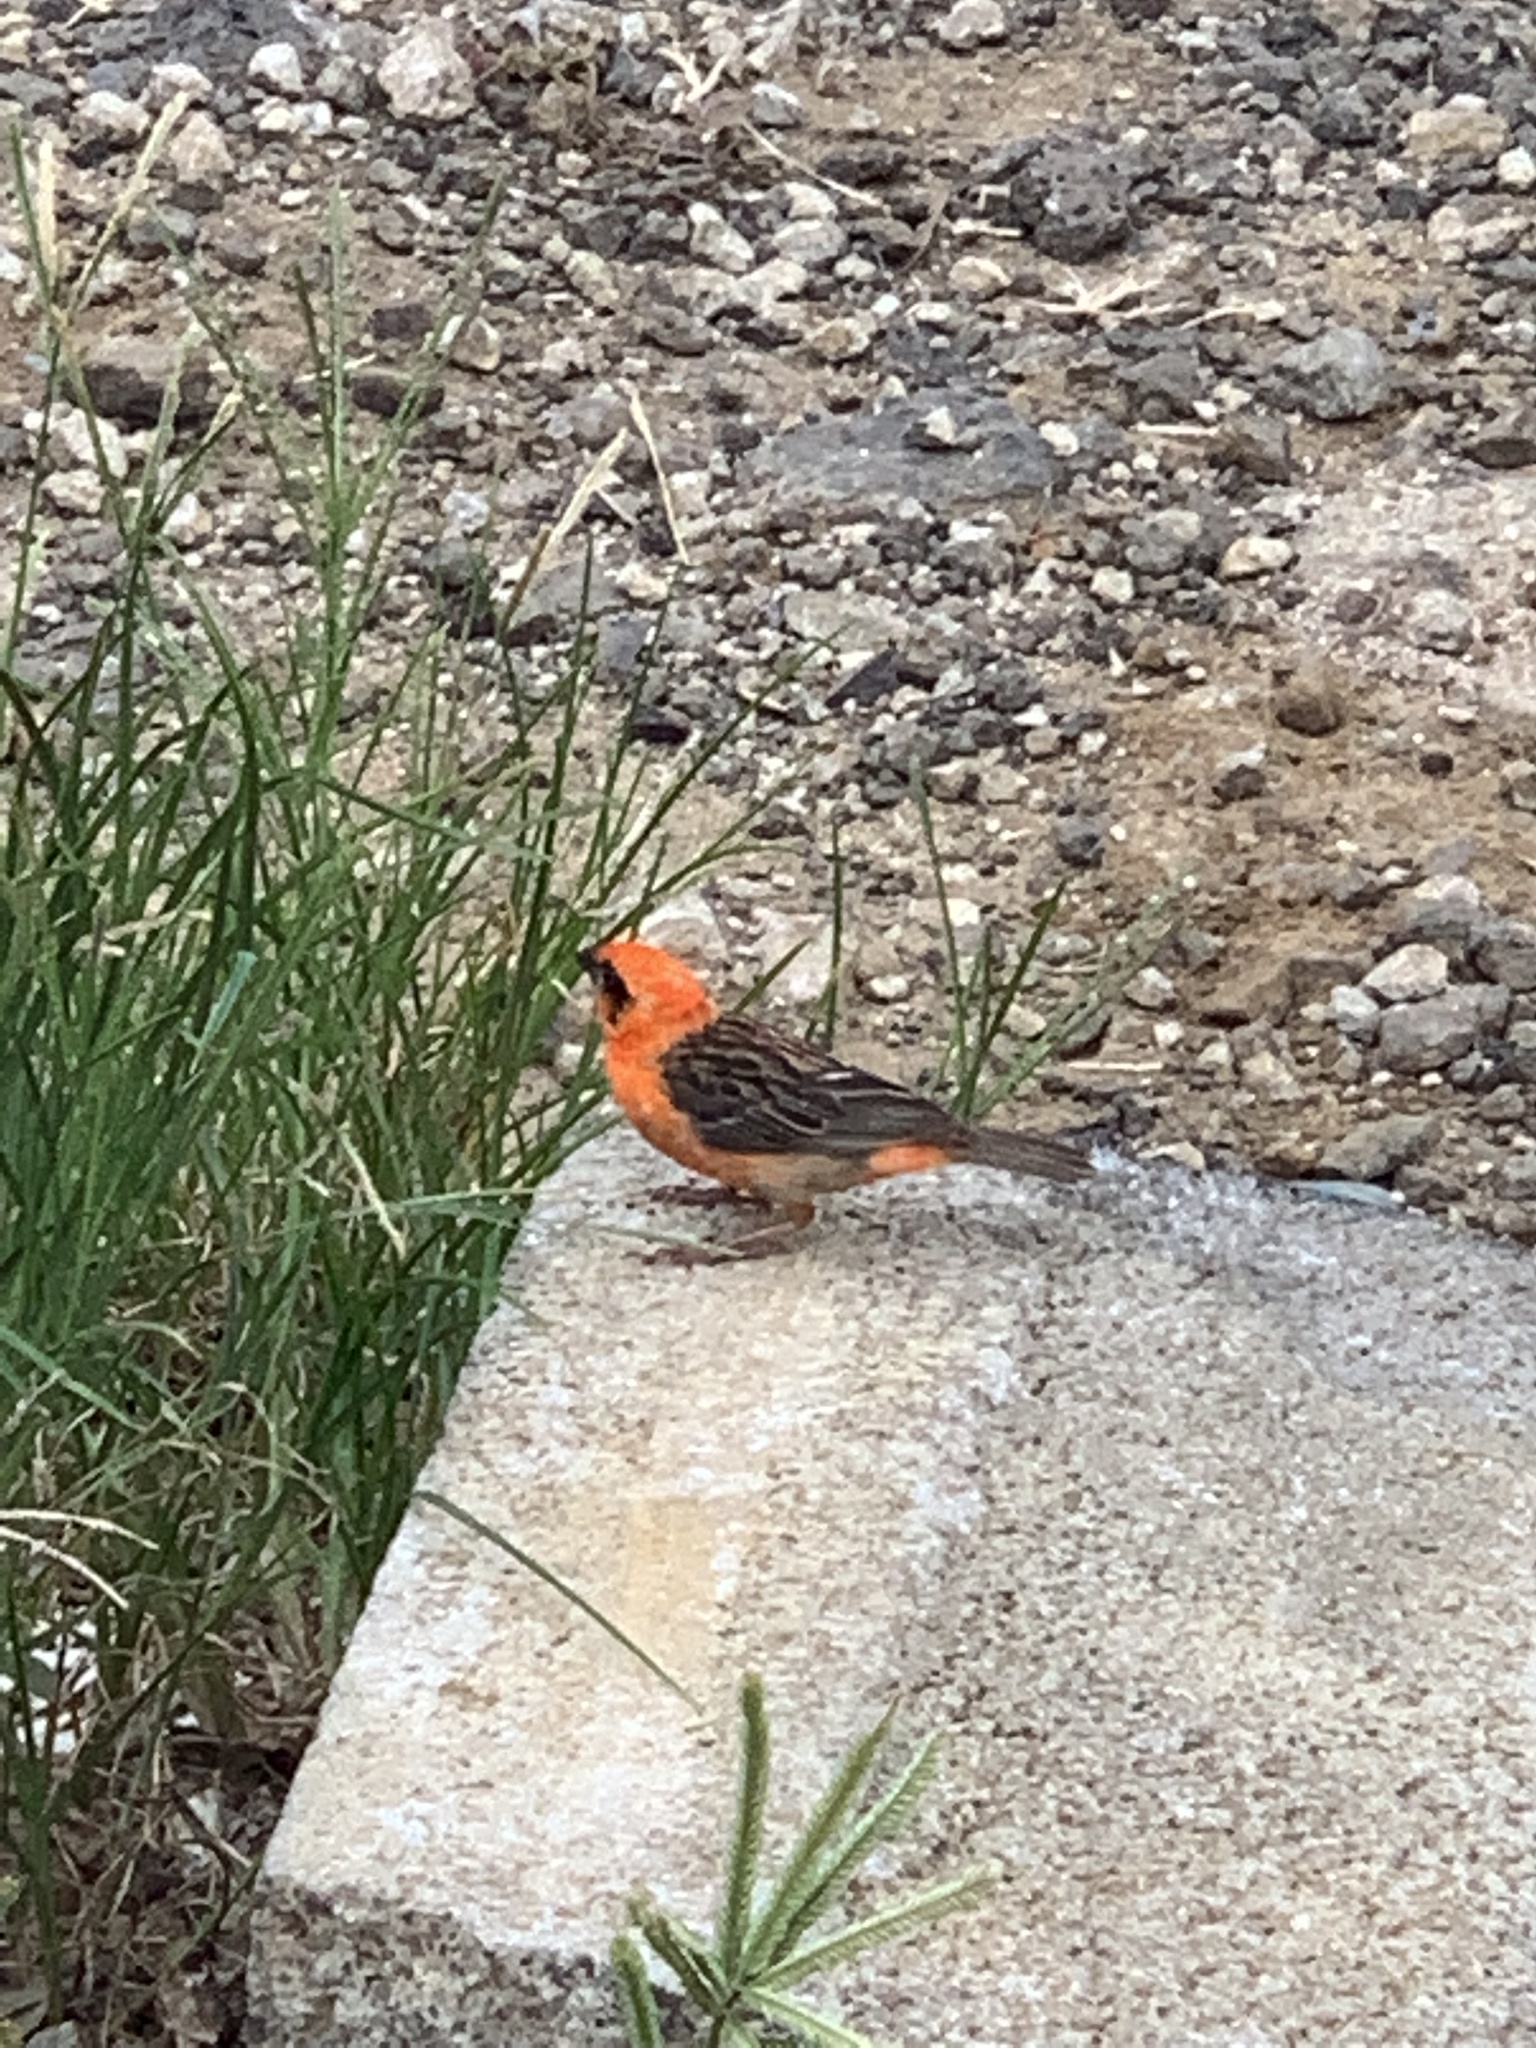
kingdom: Animalia
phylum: Chordata
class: Aves
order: Passeriformes
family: Ploceidae
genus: Foudia
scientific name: Foudia madagascariensis
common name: Red fody
